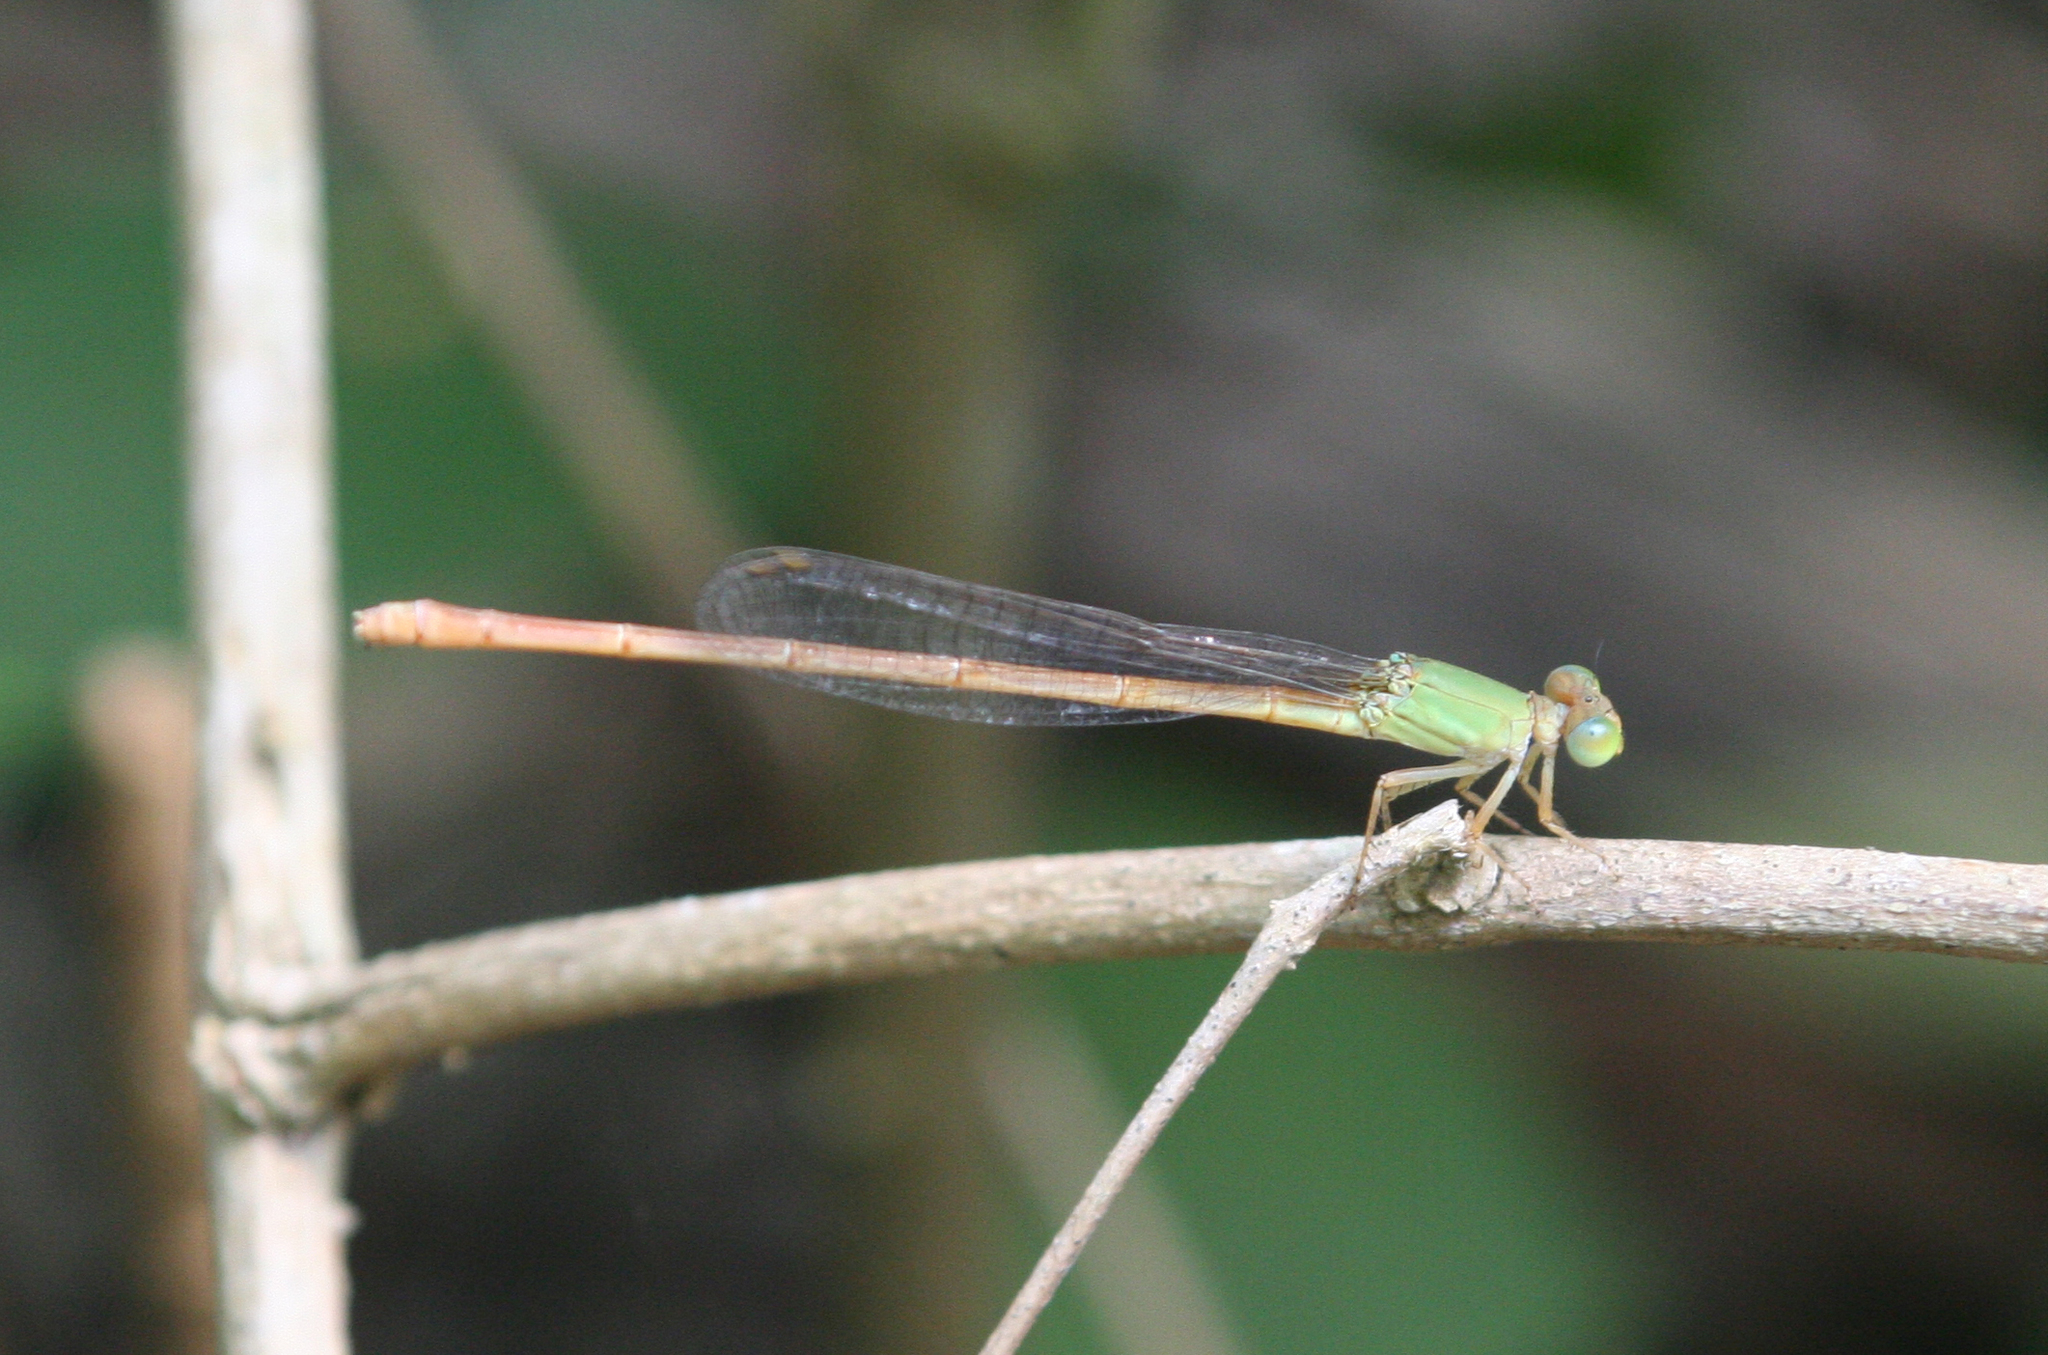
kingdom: Animalia
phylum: Arthropoda
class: Insecta
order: Odonata
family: Coenagrionidae
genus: Ceriagrion
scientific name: Ceriagrion olivaceum
